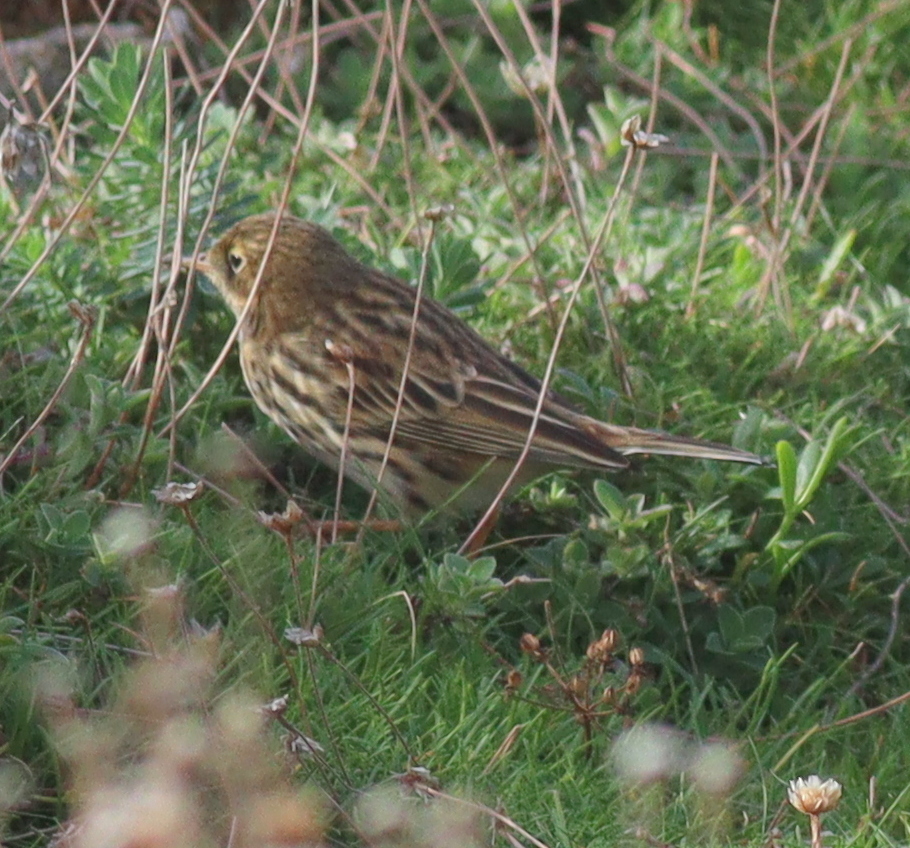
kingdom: Animalia
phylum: Chordata
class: Aves
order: Passeriformes
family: Motacillidae
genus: Anthus
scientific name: Anthus pratensis
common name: Meadow pipit
